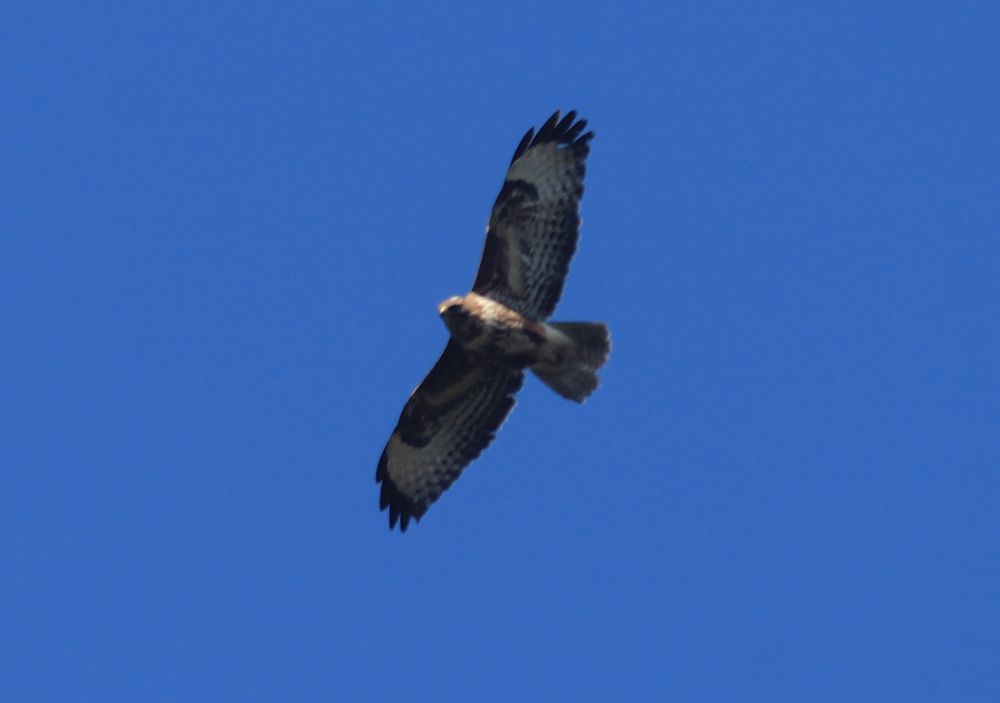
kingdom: Animalia
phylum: Chordata
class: Aves
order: Accipitriformes
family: Accipitridae
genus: Buteo
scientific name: Buteo buteo
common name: Common buzzard
